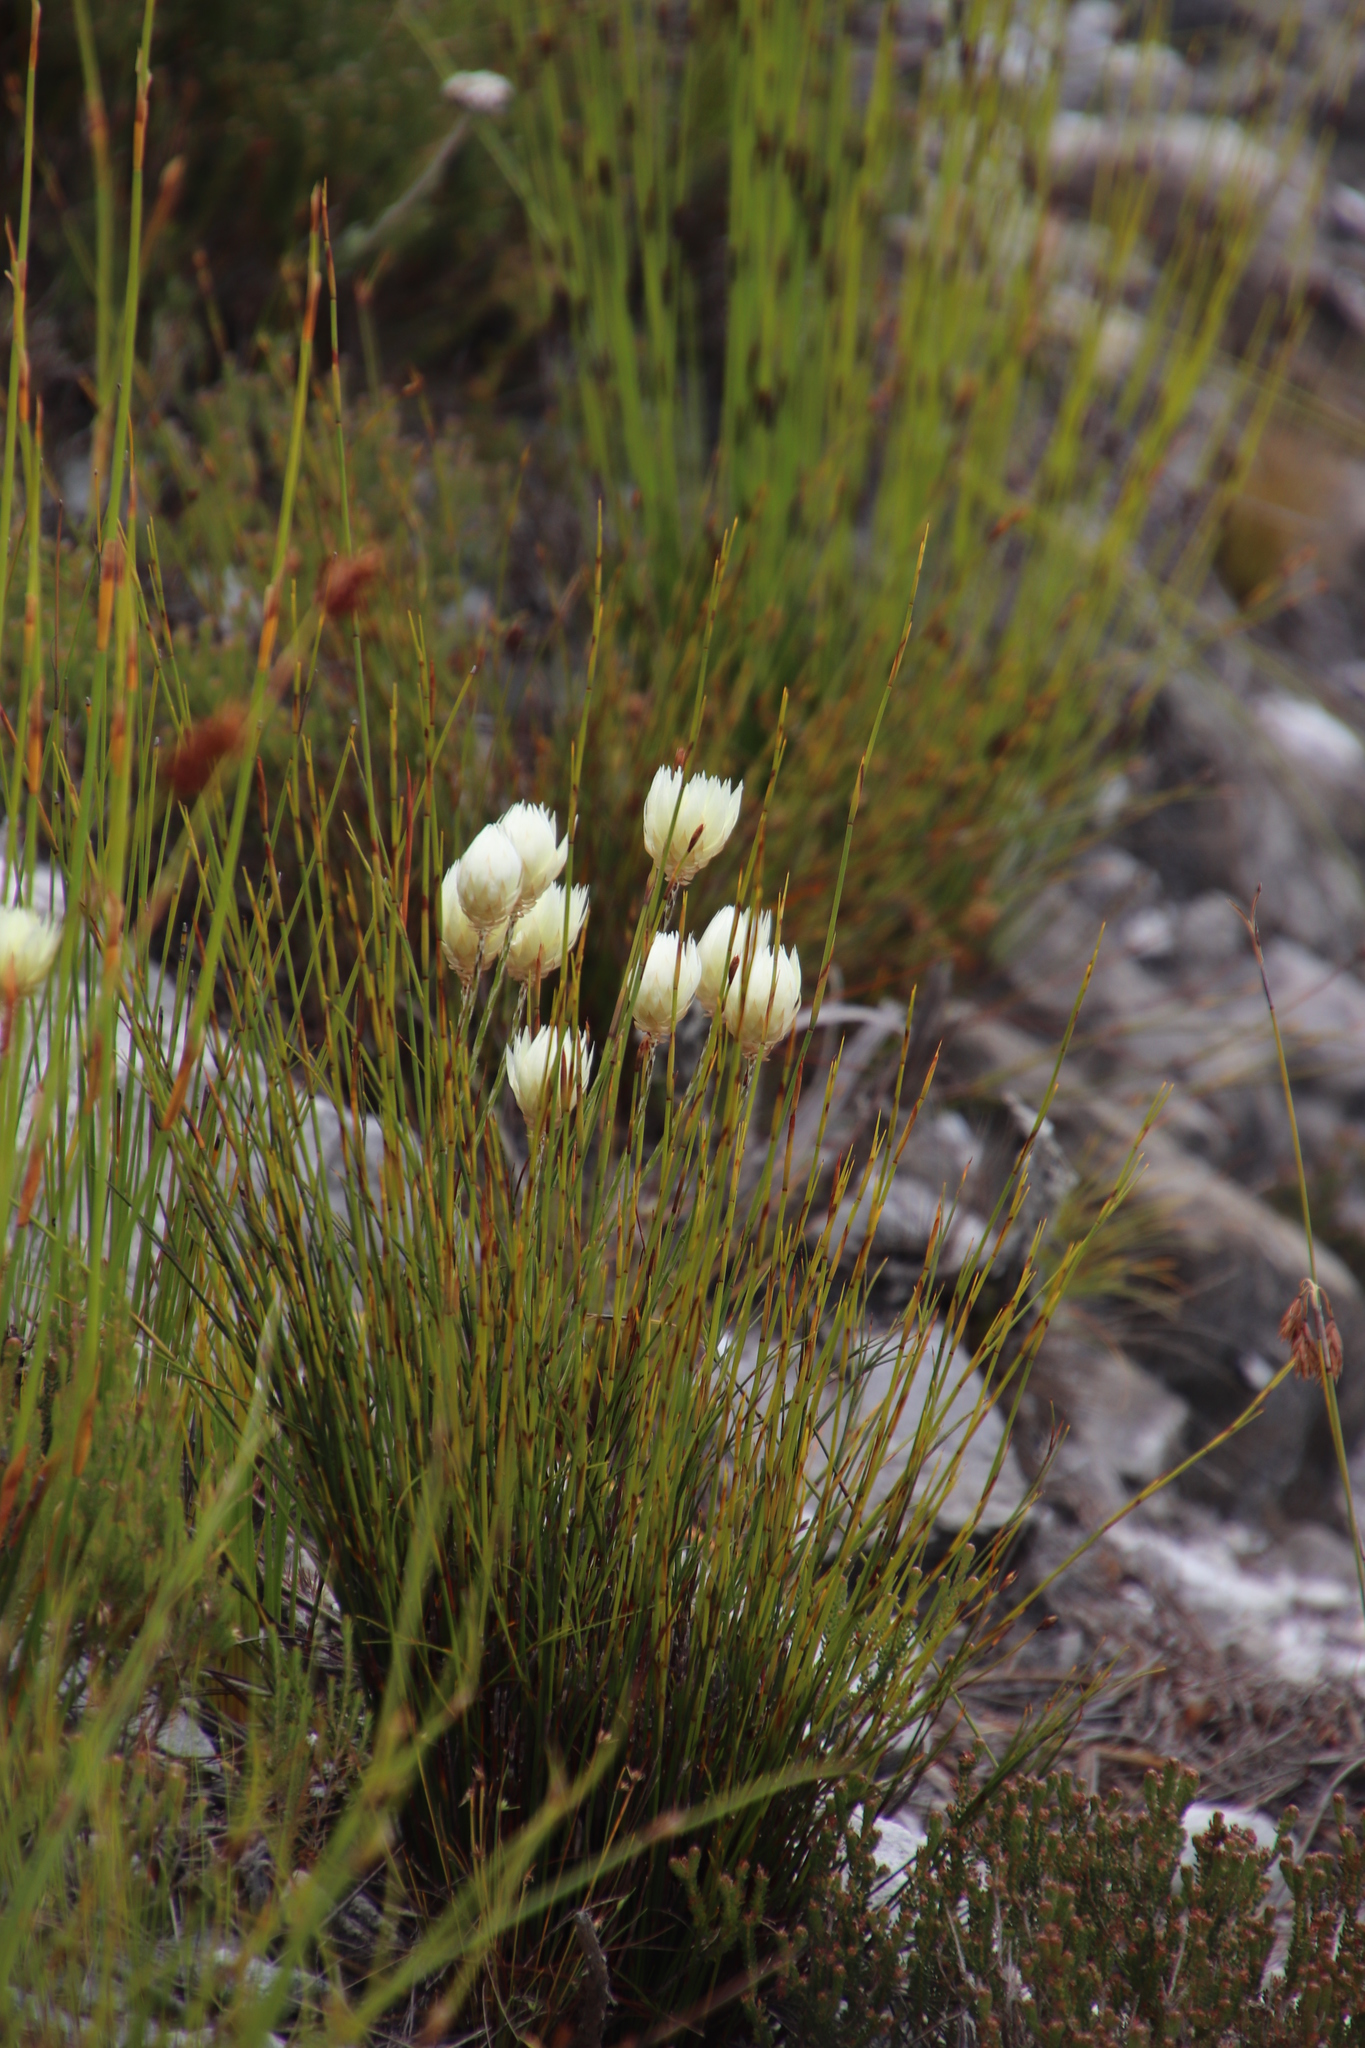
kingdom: Plantae
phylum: Tracheophyta
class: Magnoliopsida
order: Asterales
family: Asteraceae
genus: Edmondia
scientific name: Edmondia fasciculata
